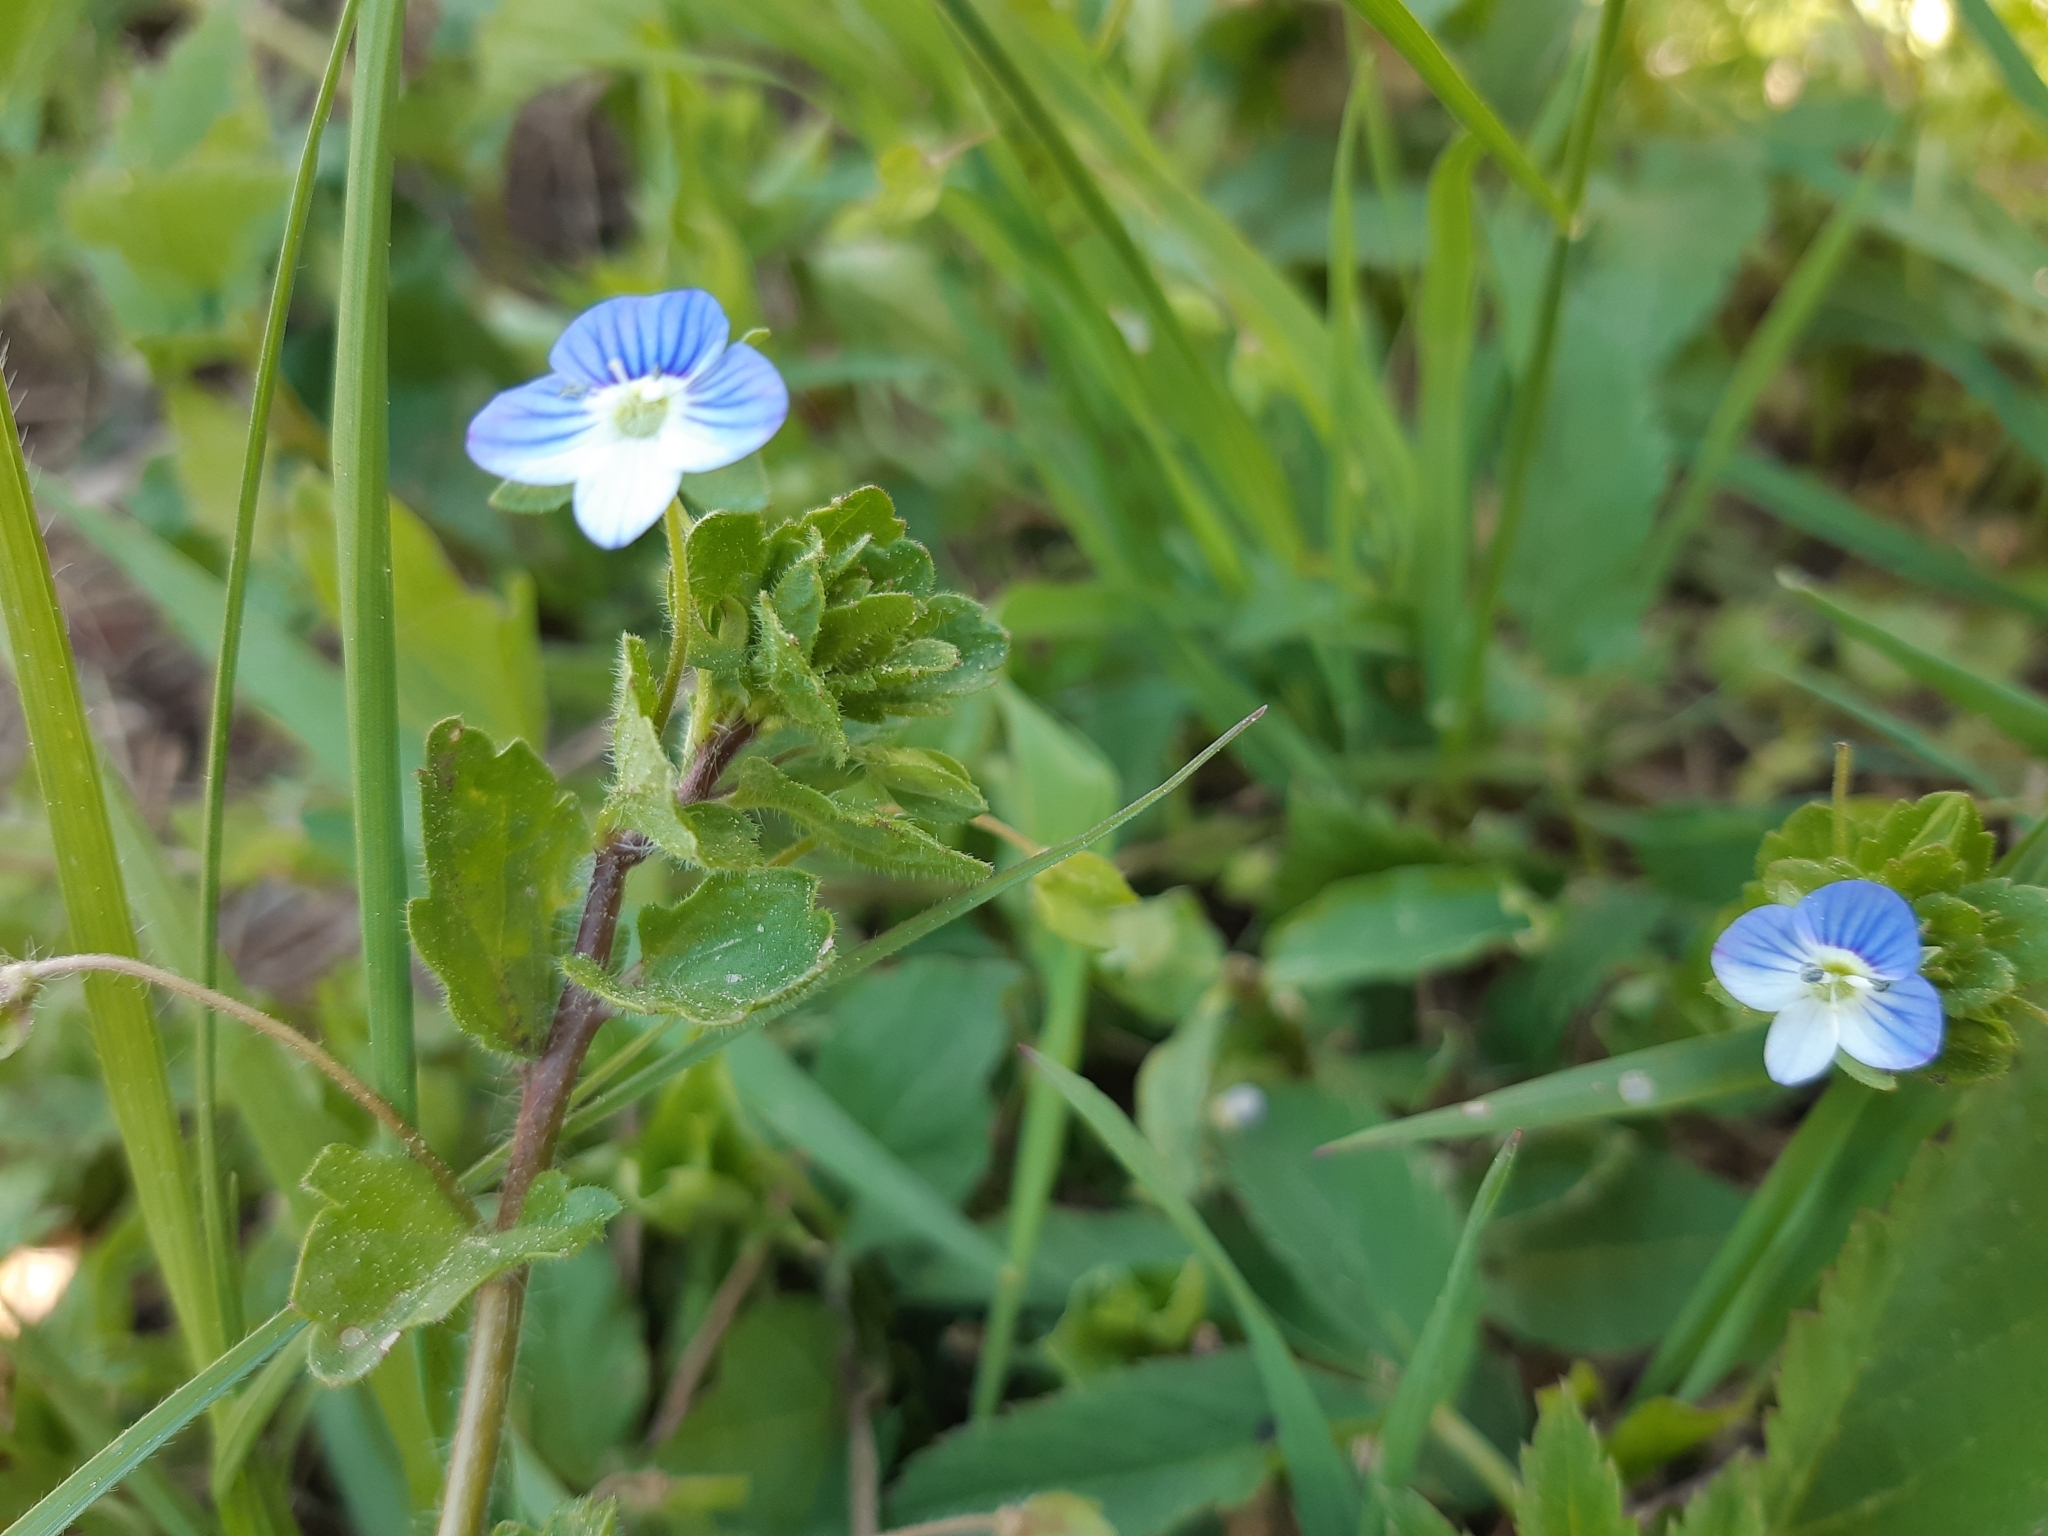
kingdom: Plantae
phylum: Tracheophyta
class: Magnoliopsida
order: Lamiales
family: Plantaginaceae
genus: Veronica
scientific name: Veronica persica
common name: Common field-speedwell
